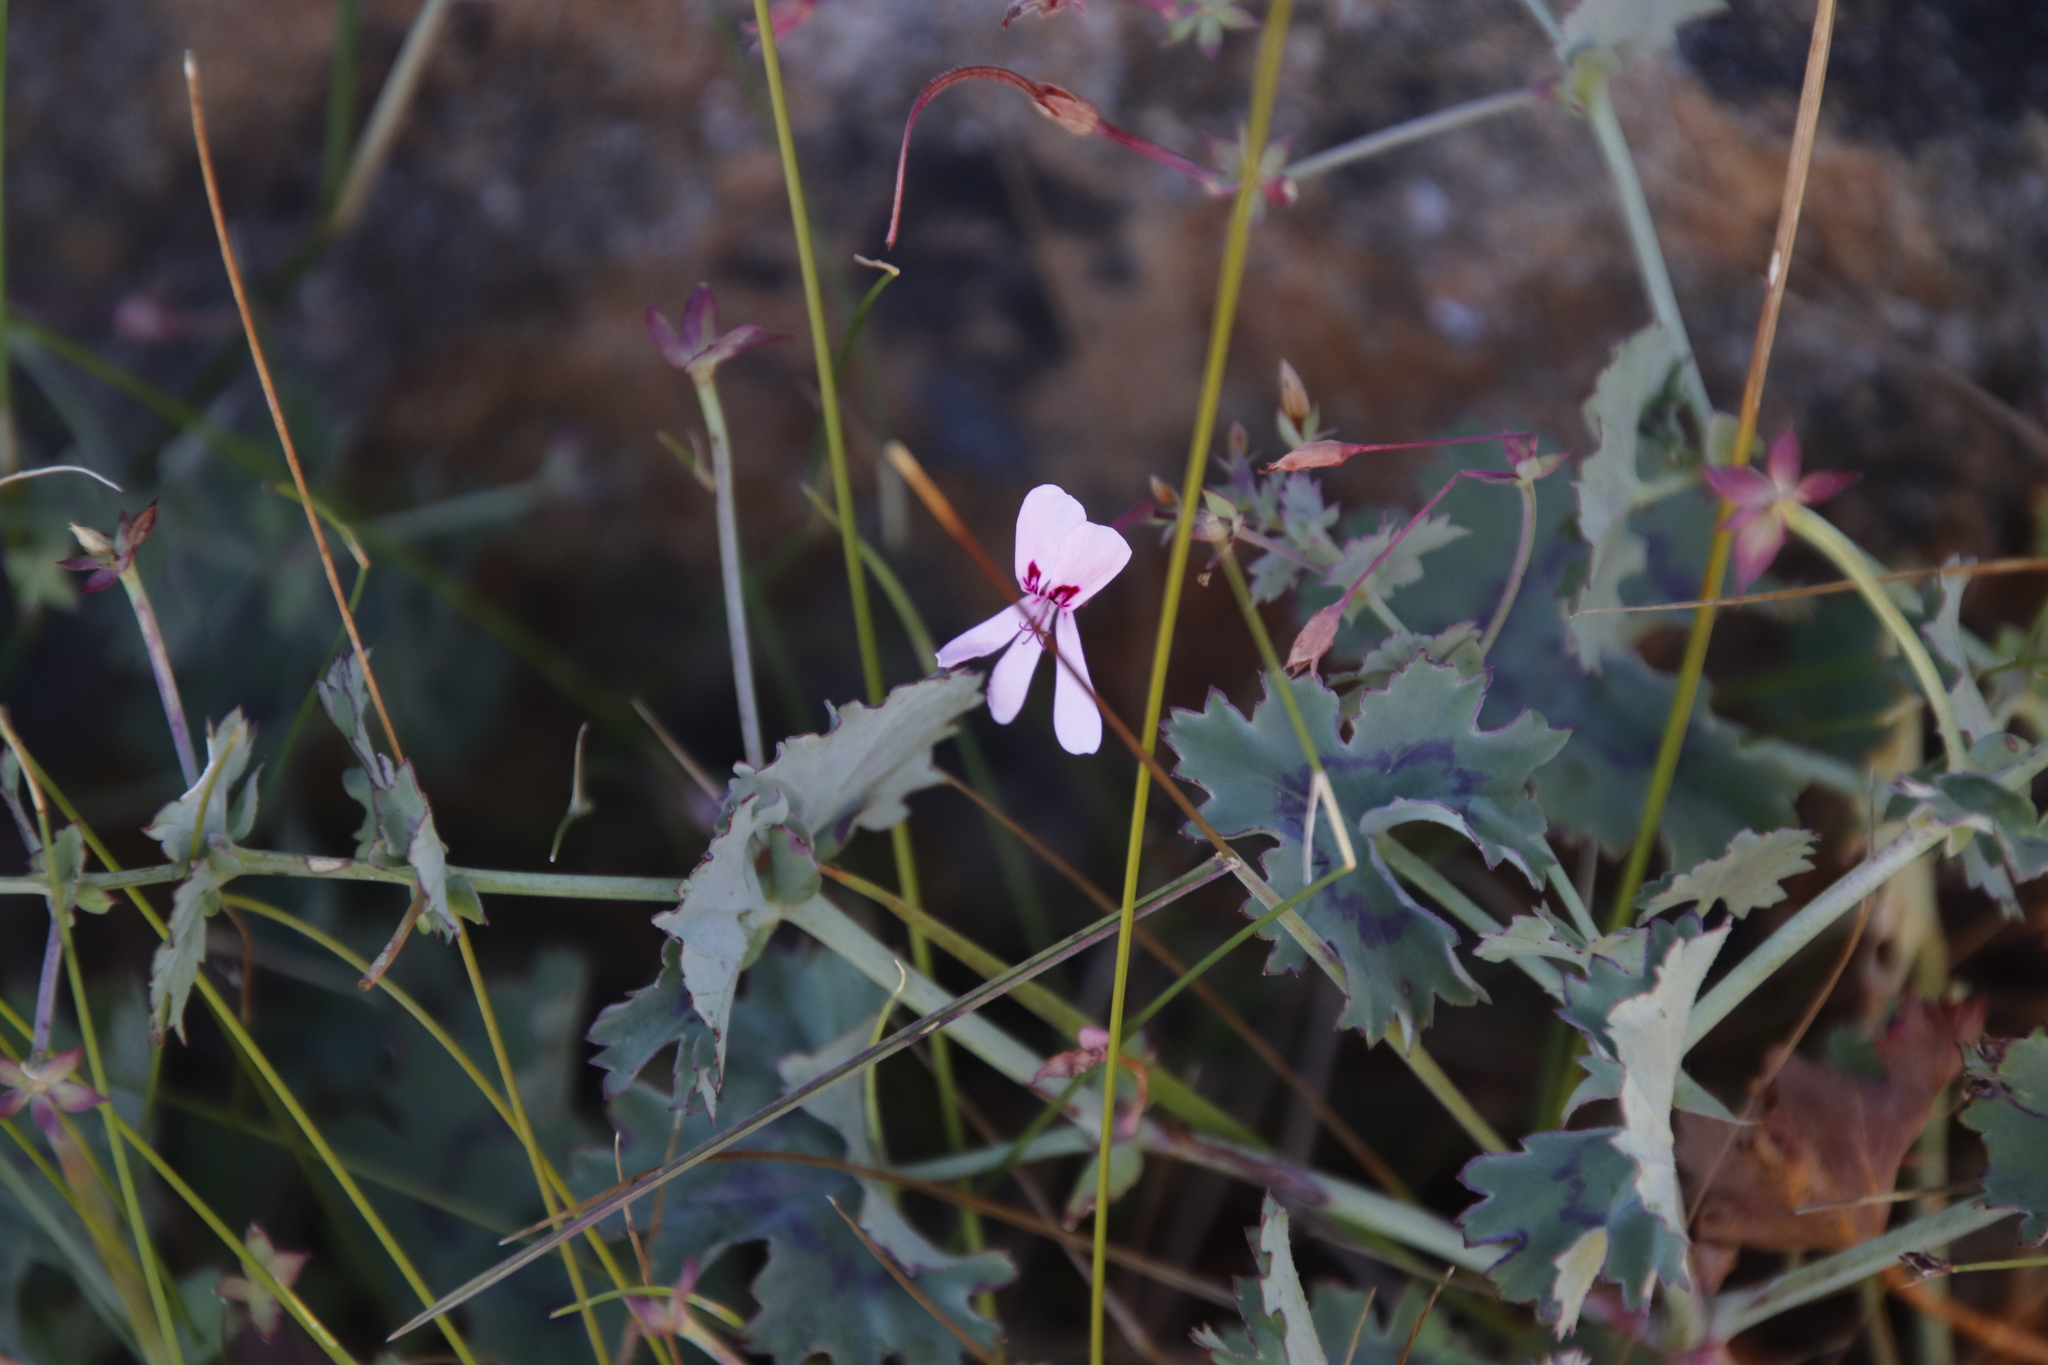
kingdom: Plantae
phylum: Tracheophyta
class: Magnoliopsida
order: Geraniales
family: Geraniaceae
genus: Pelargonium
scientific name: Pelargonium tabulare
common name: Table mountain pelargonium
